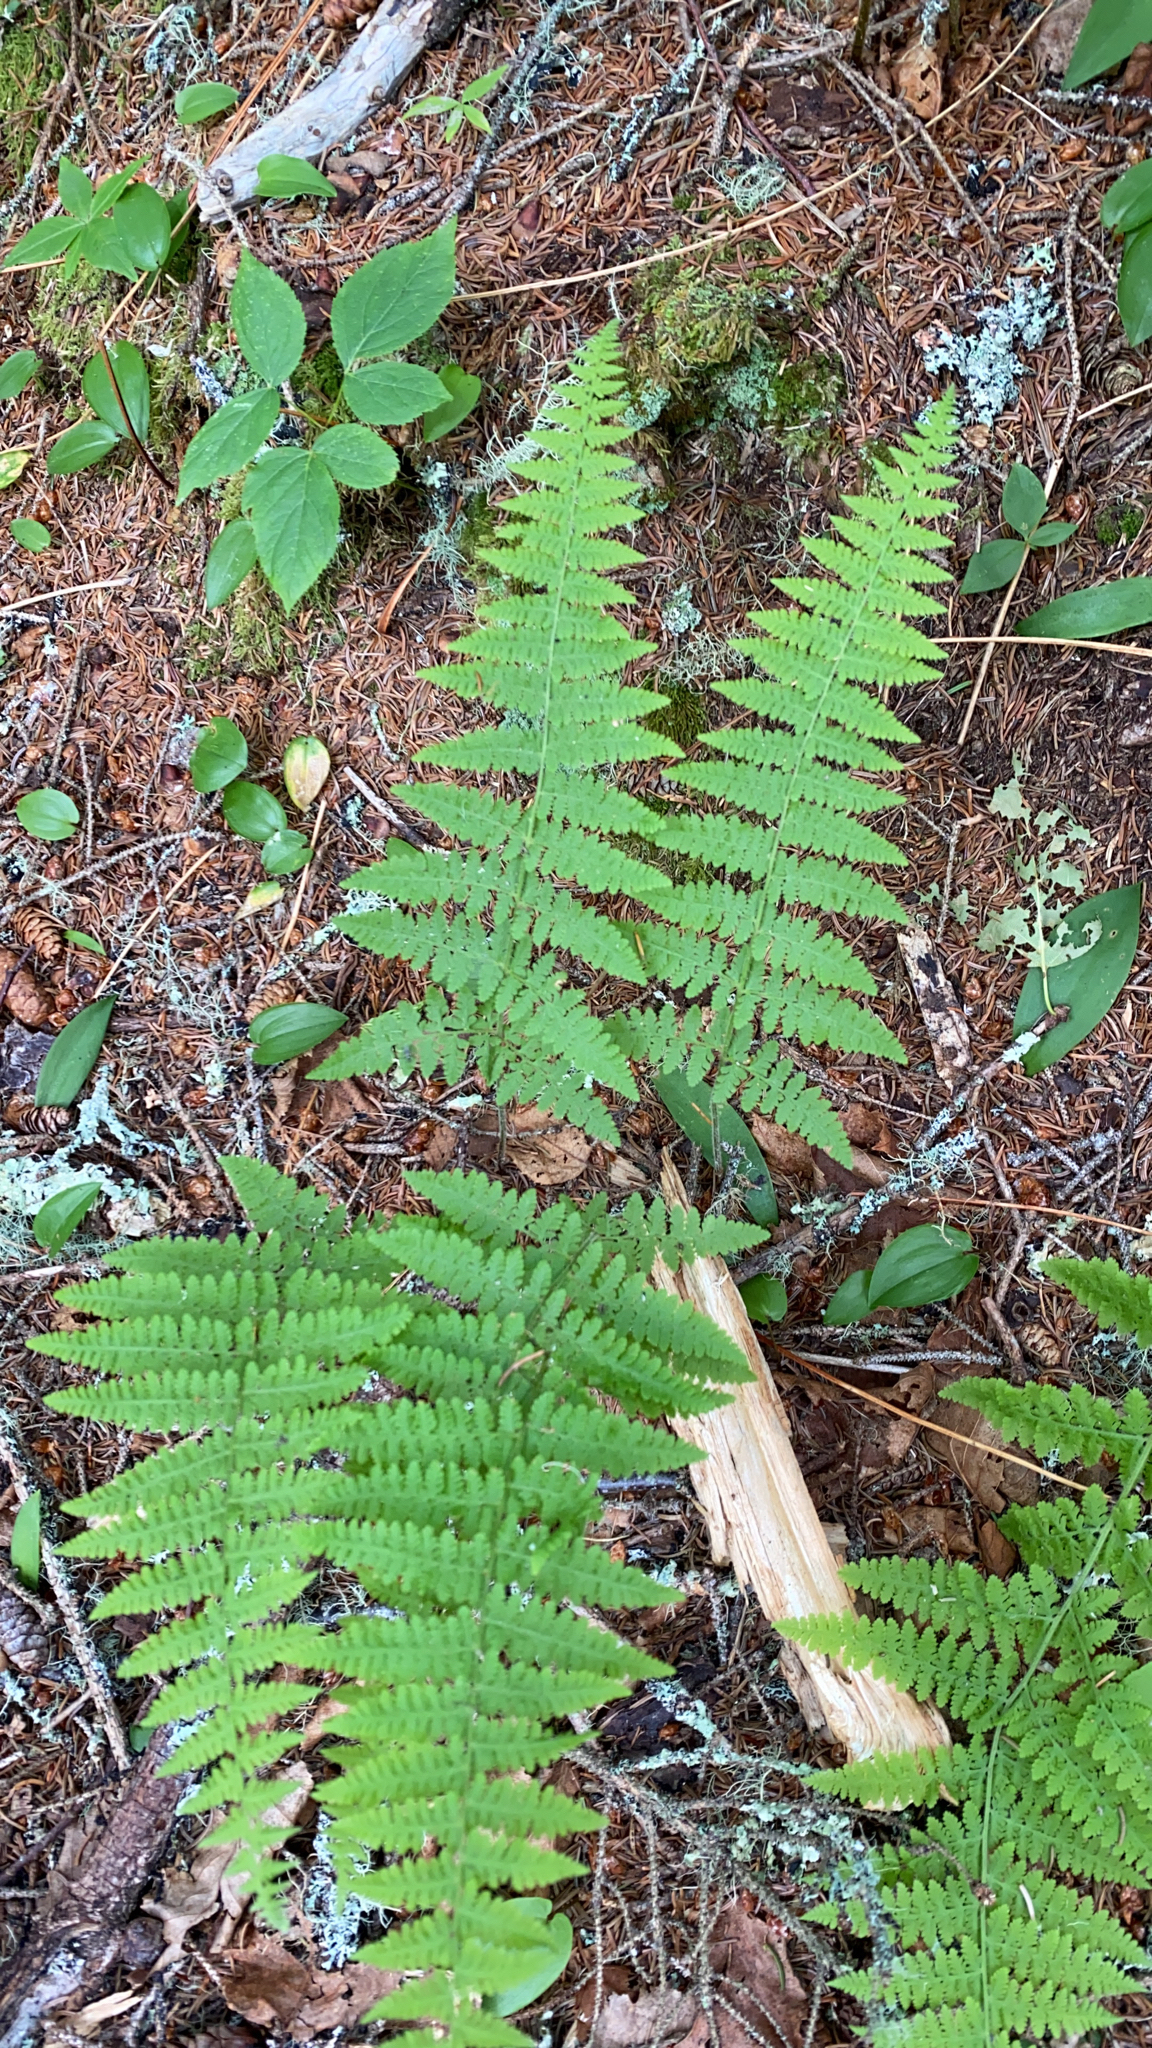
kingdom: Plantae
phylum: Tracheophyta
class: Polypodiopsida
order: Polypodiales
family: Dennstaedtiaceae
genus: Sitobolium
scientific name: Sitobolium punctilobum
